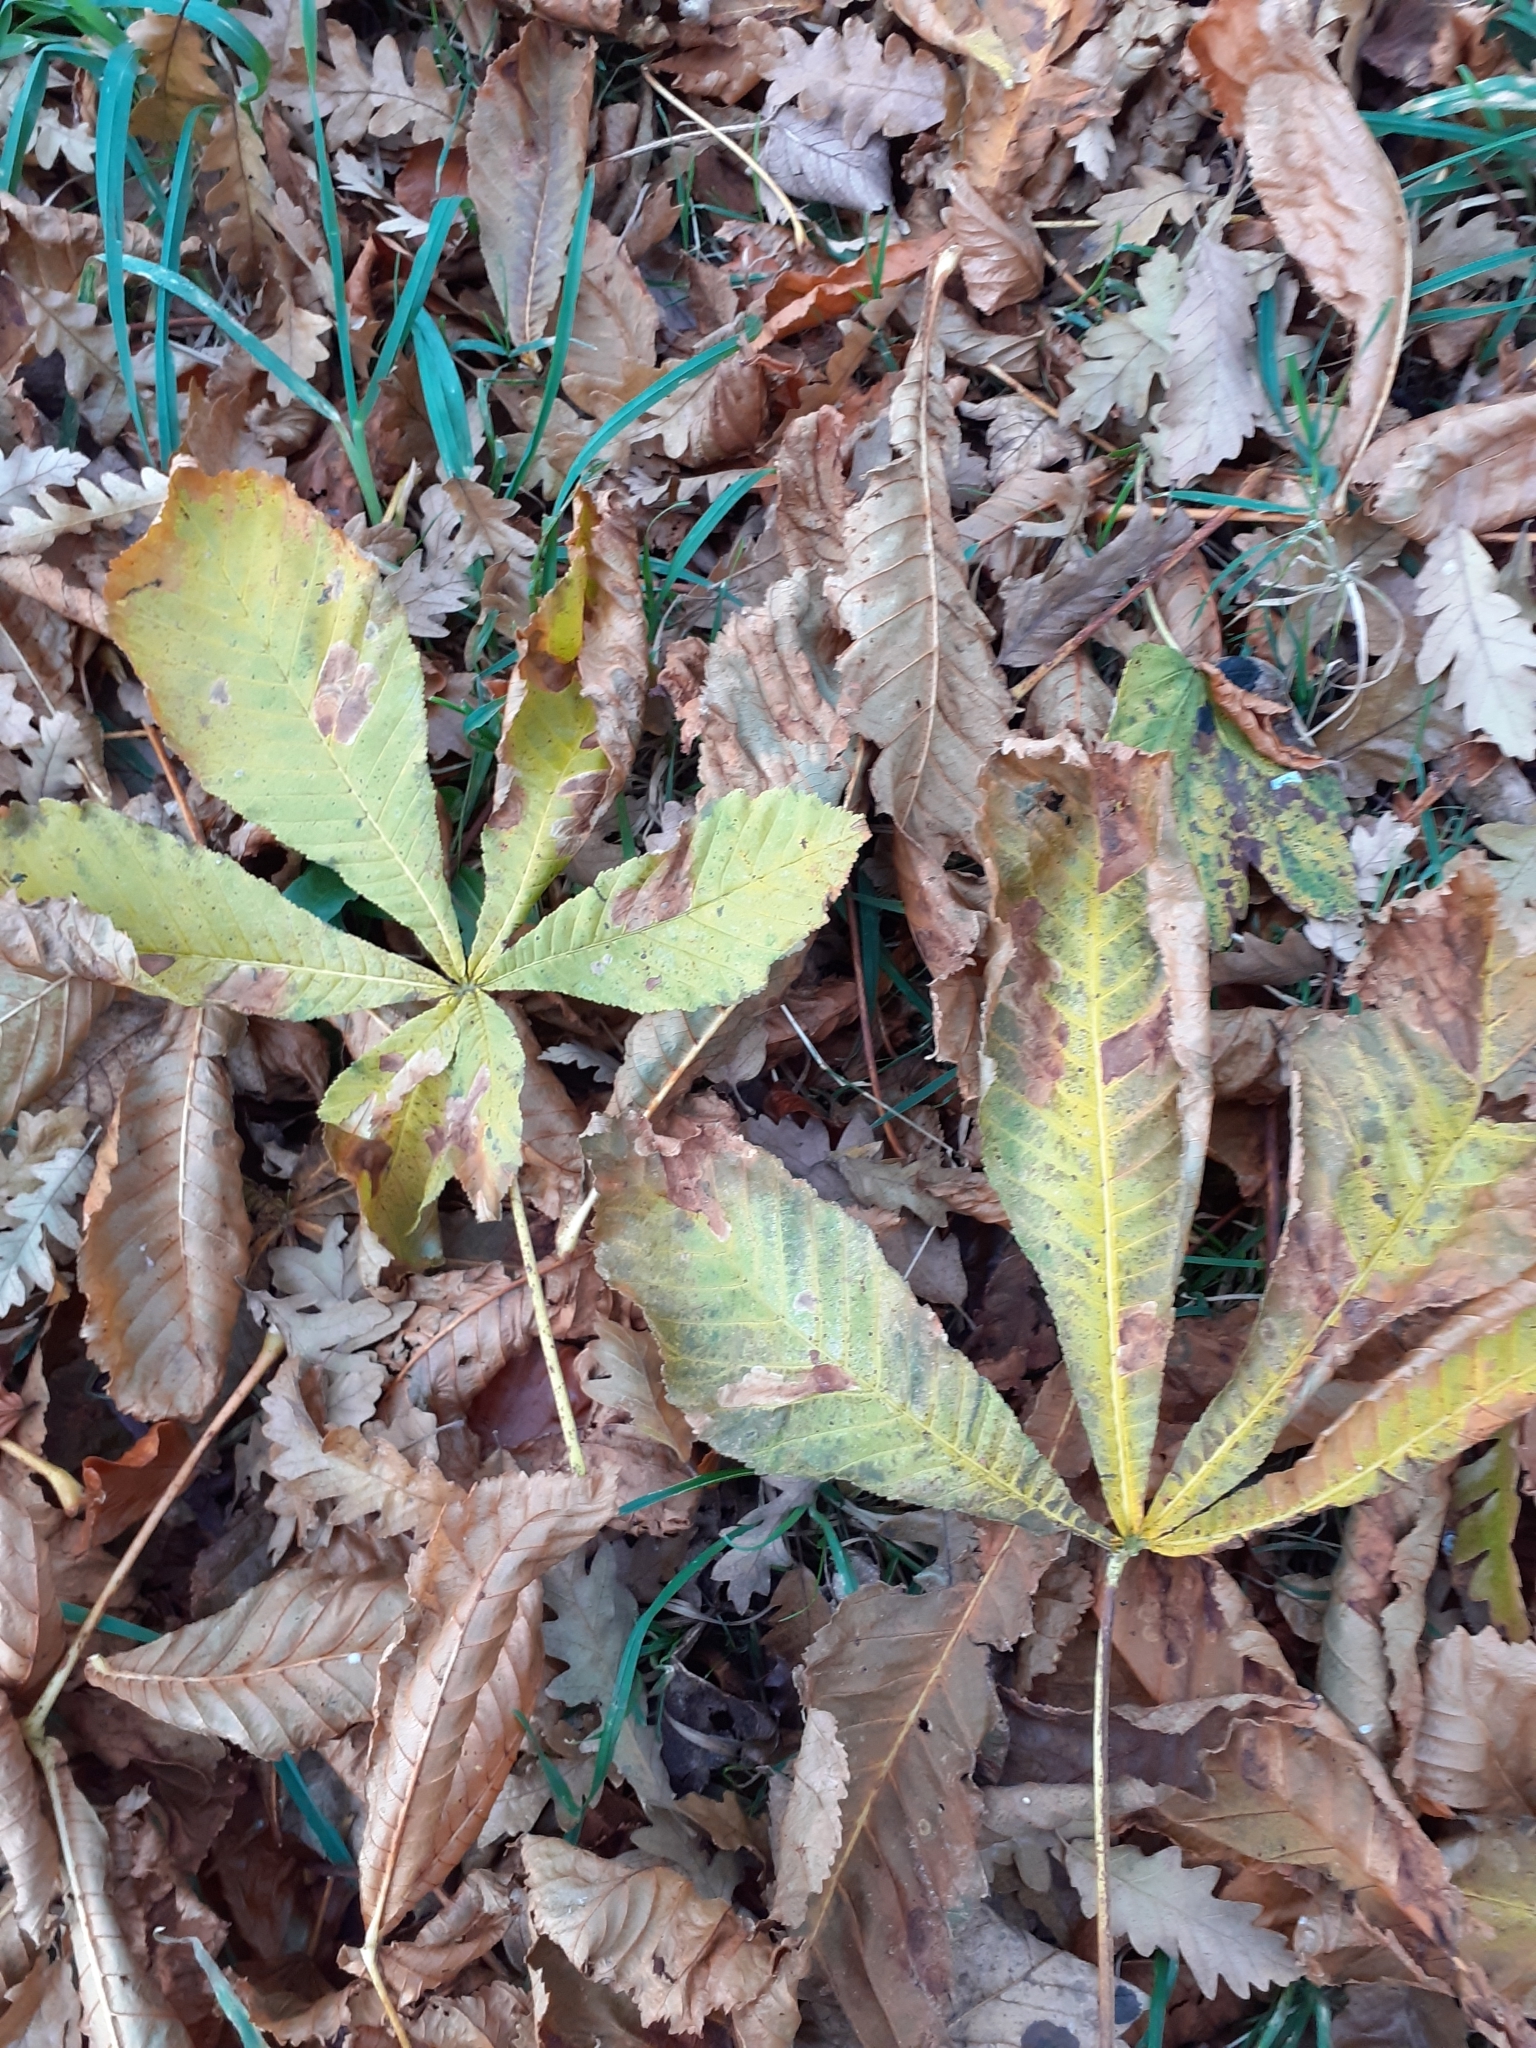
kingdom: Plantae
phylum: Tracheophyta
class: Magnoliopsida
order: Sapindales
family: Sapindaceae
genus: Aesculus
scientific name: Aesculus hippocastanum
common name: Horse-chestnut
